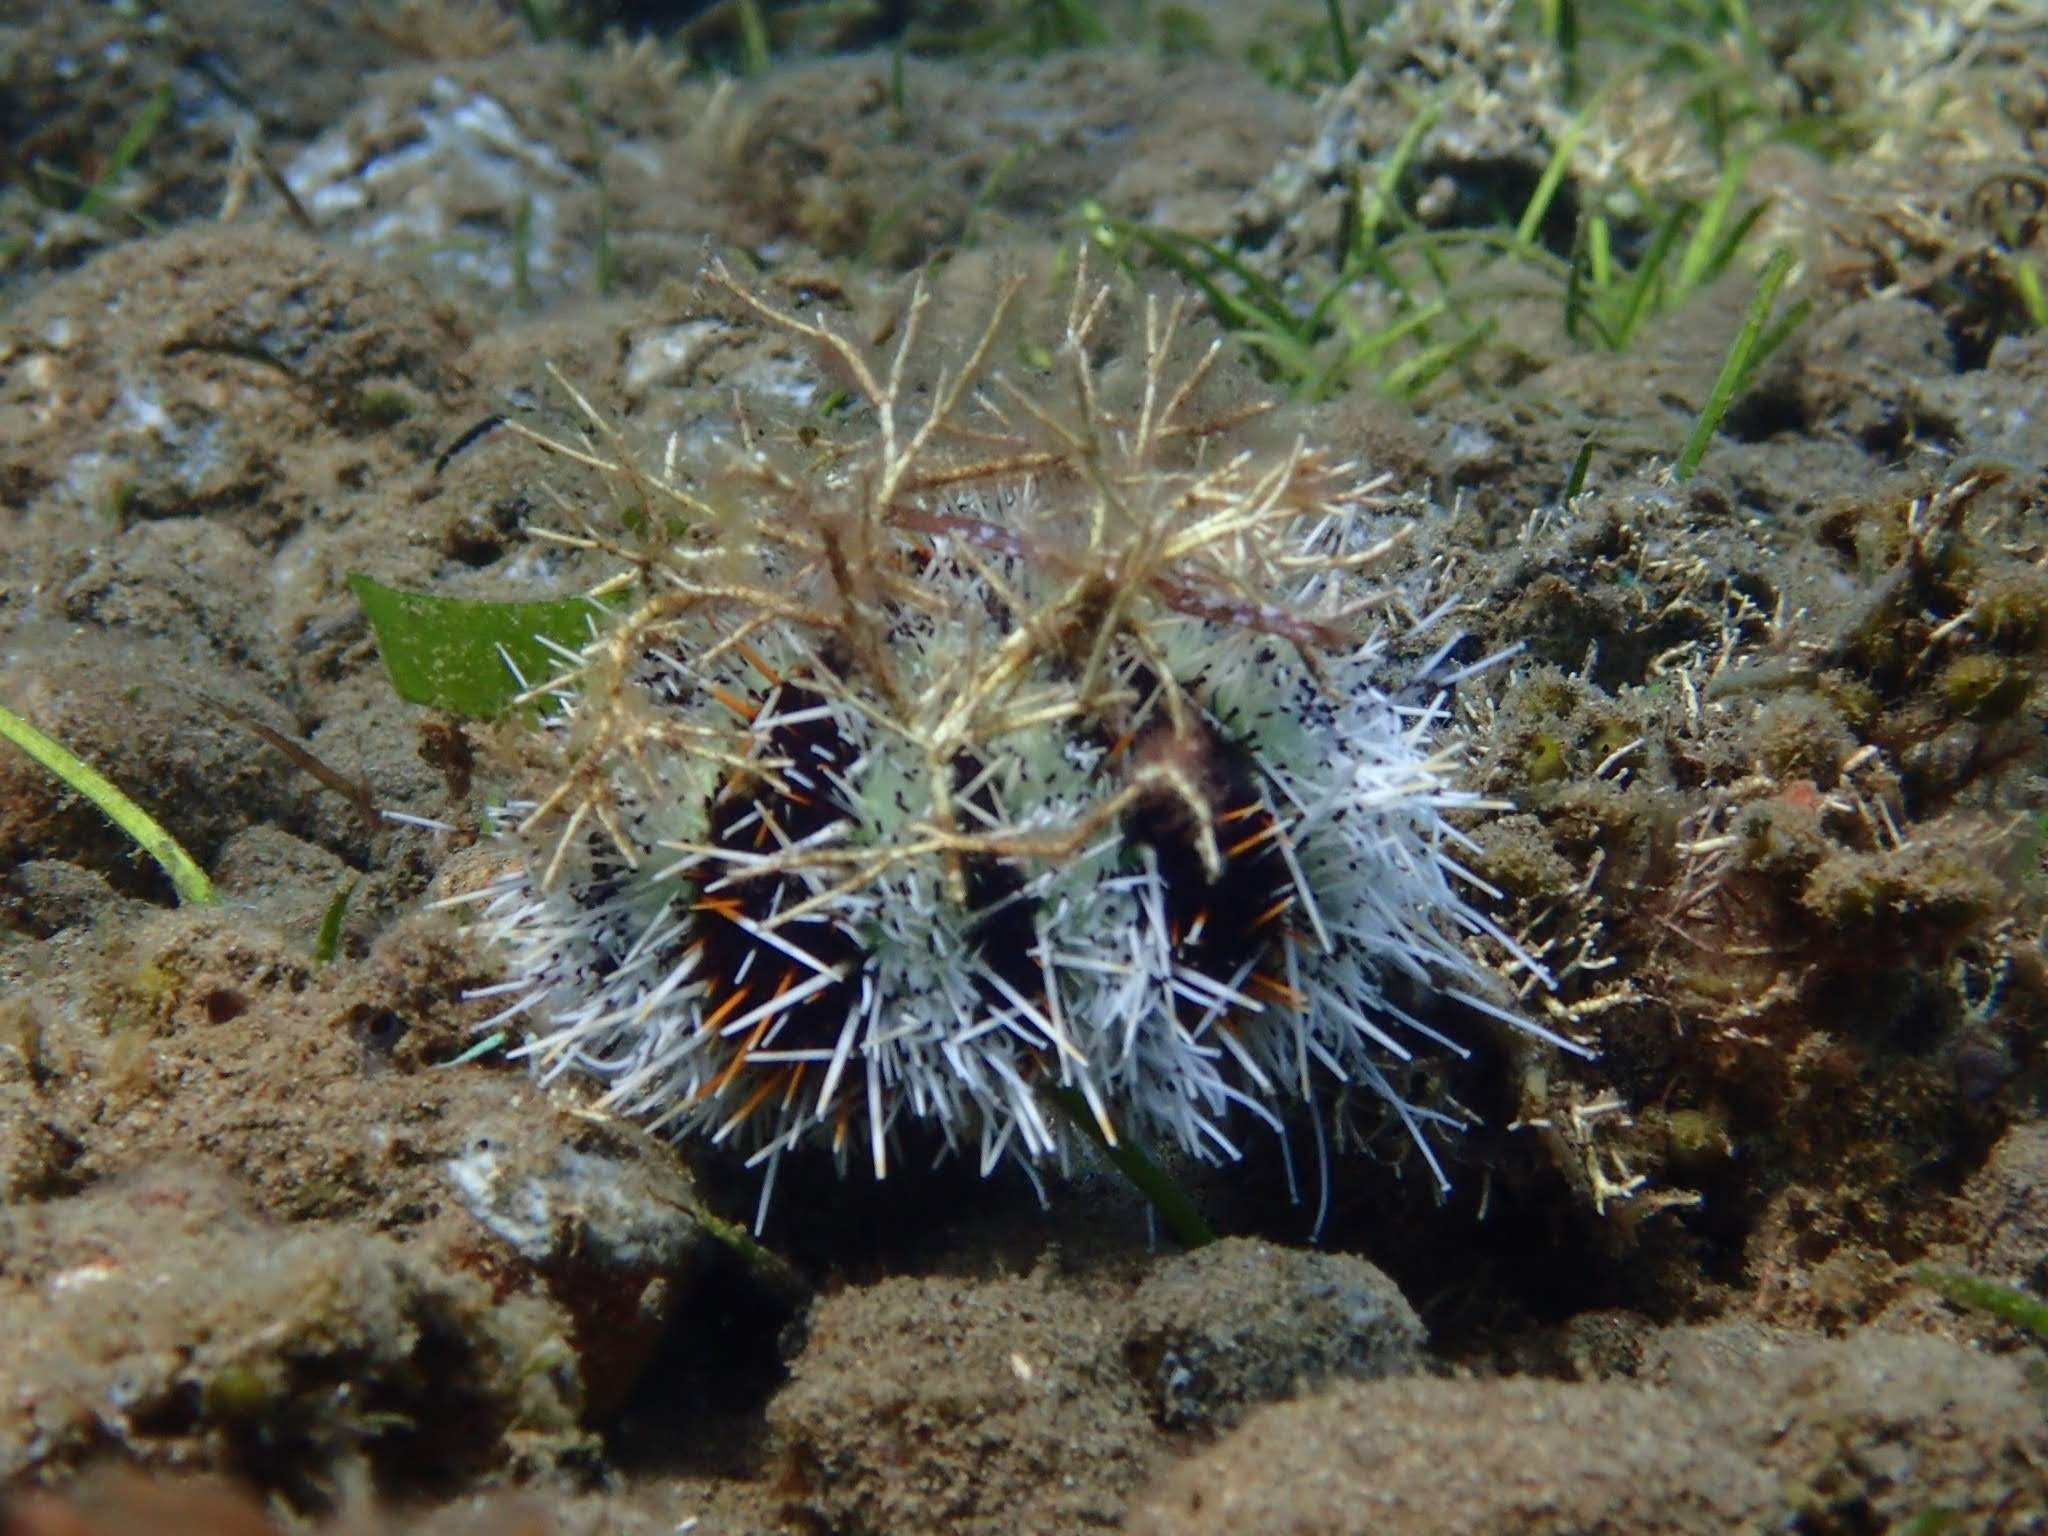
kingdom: Animalia
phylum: Echinodermata
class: Echinoidea
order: Camarodonta
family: Toxopneustidae
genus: Tripneustes
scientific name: Tripneustes gratilla
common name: Bischofsmützenseeigel
